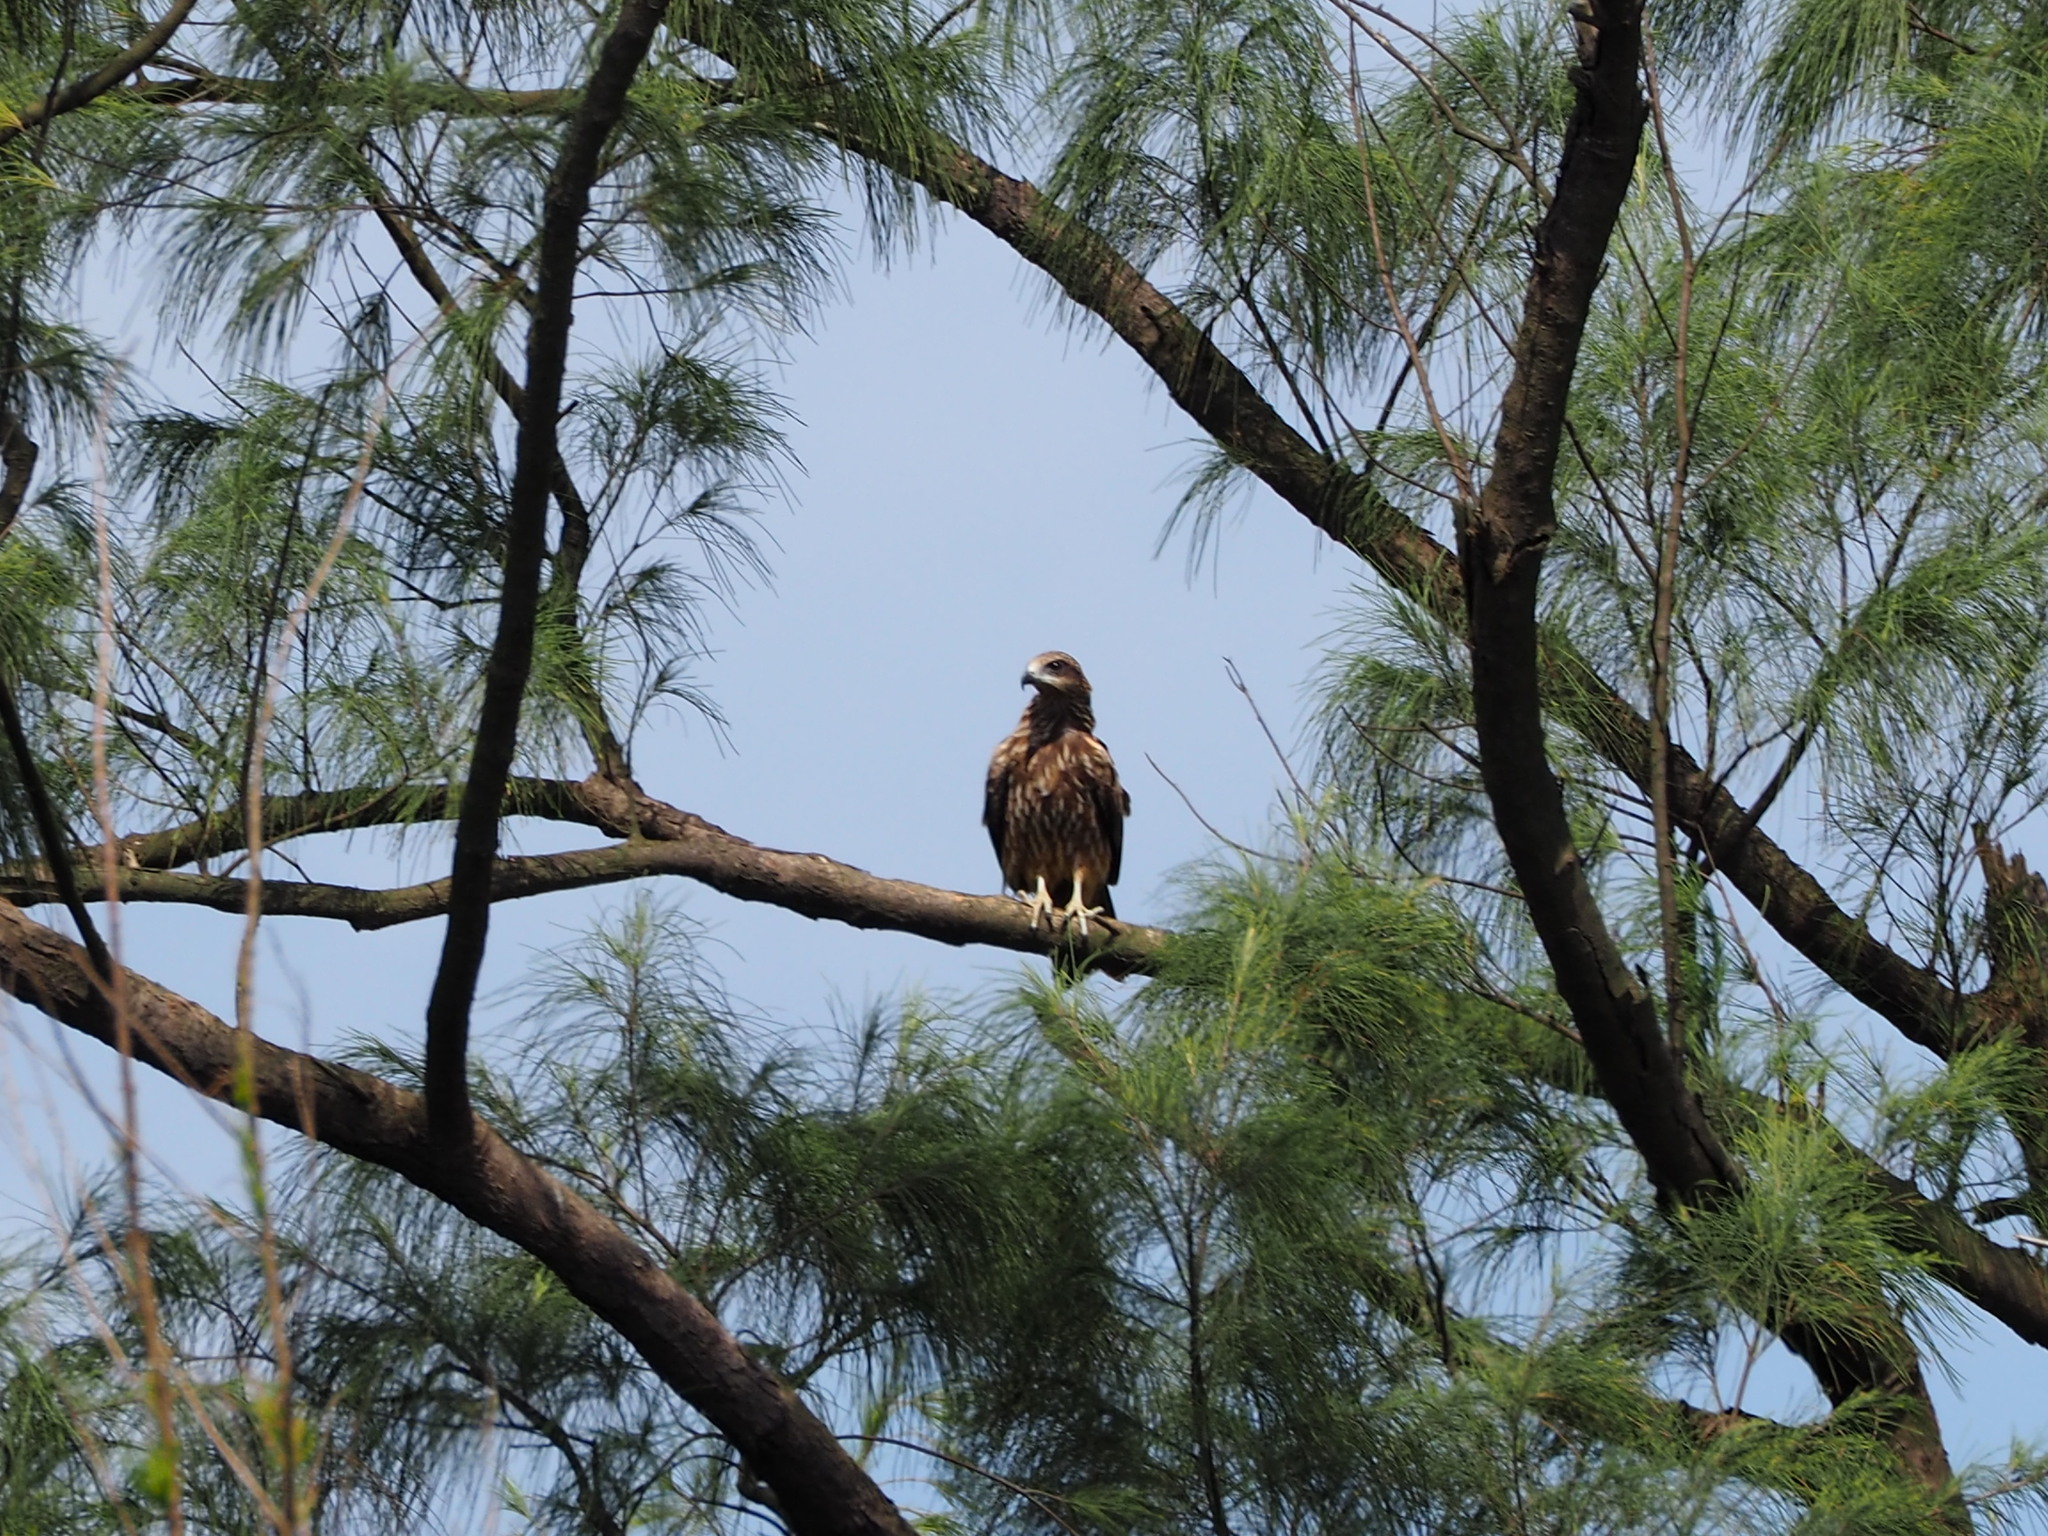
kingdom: Animalia
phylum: Chordata
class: Aves
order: Accipitriformes
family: Accipitridae
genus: Milvus
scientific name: Milvus migrans
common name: Black kite
